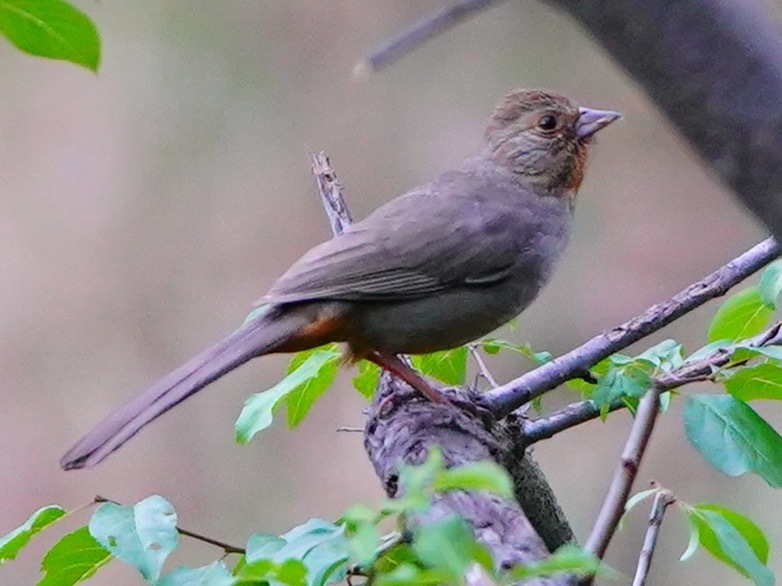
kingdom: Animalia
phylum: Chordata
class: Aves
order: Passeriformes
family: Passerellidae
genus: Melozone
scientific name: Melozone crissalis
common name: California towhee
